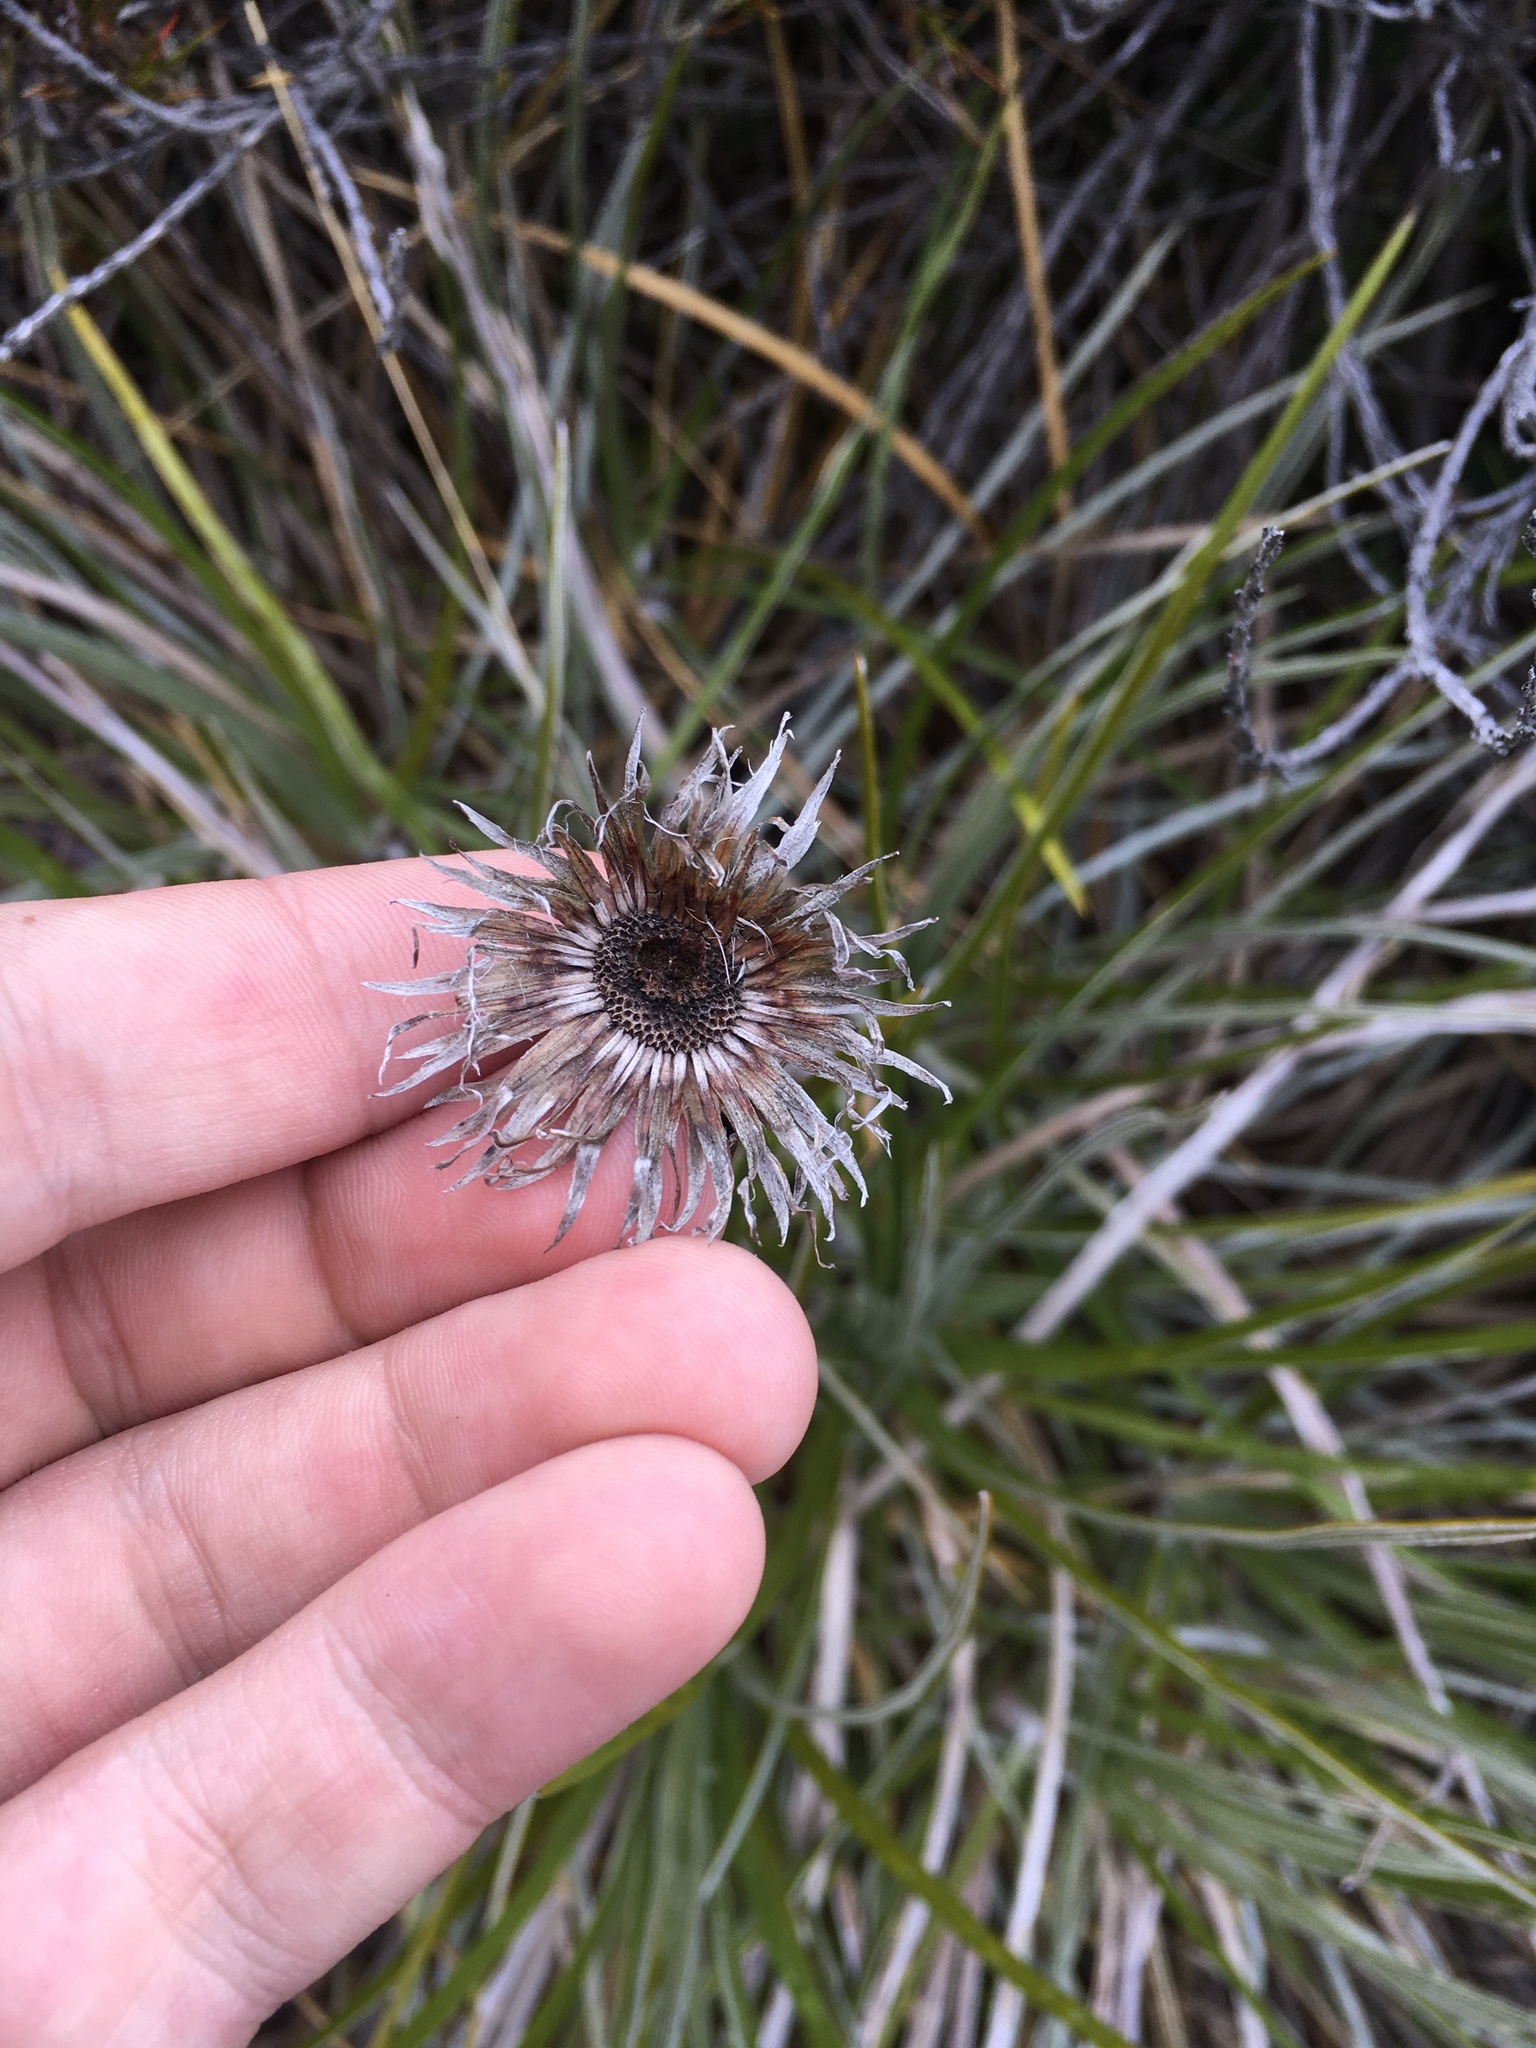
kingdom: Plantae
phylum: Tracheophyta
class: Magnoliopsida
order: Asterales
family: Asteraceae
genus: Celmisia
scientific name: Celmisia lyallii
